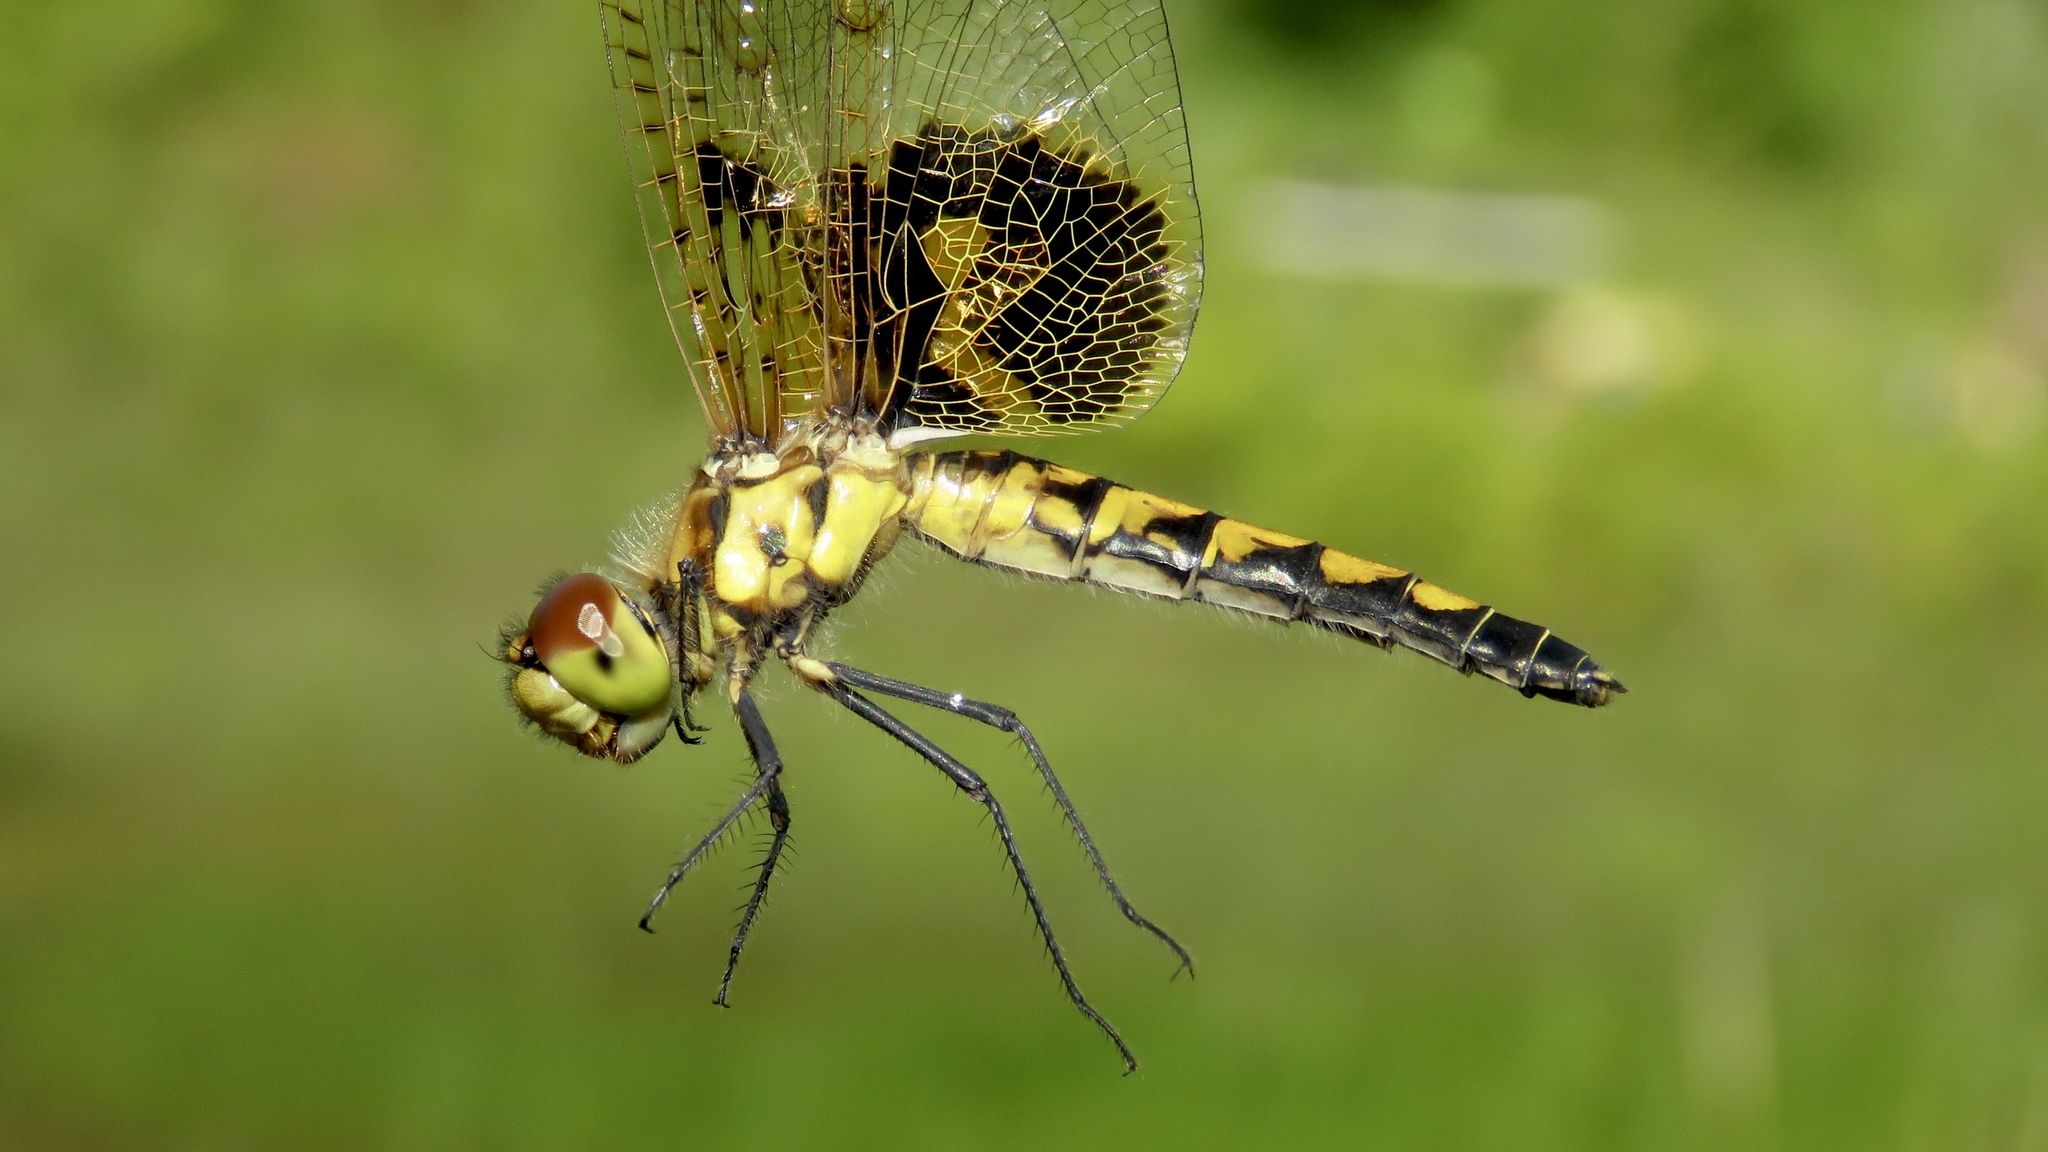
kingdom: Animalia
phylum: Arthropoda
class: Insecta
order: Odonata
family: Libellulidae
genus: Celithemis
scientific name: Celithemis elisa
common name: Calico pennant
